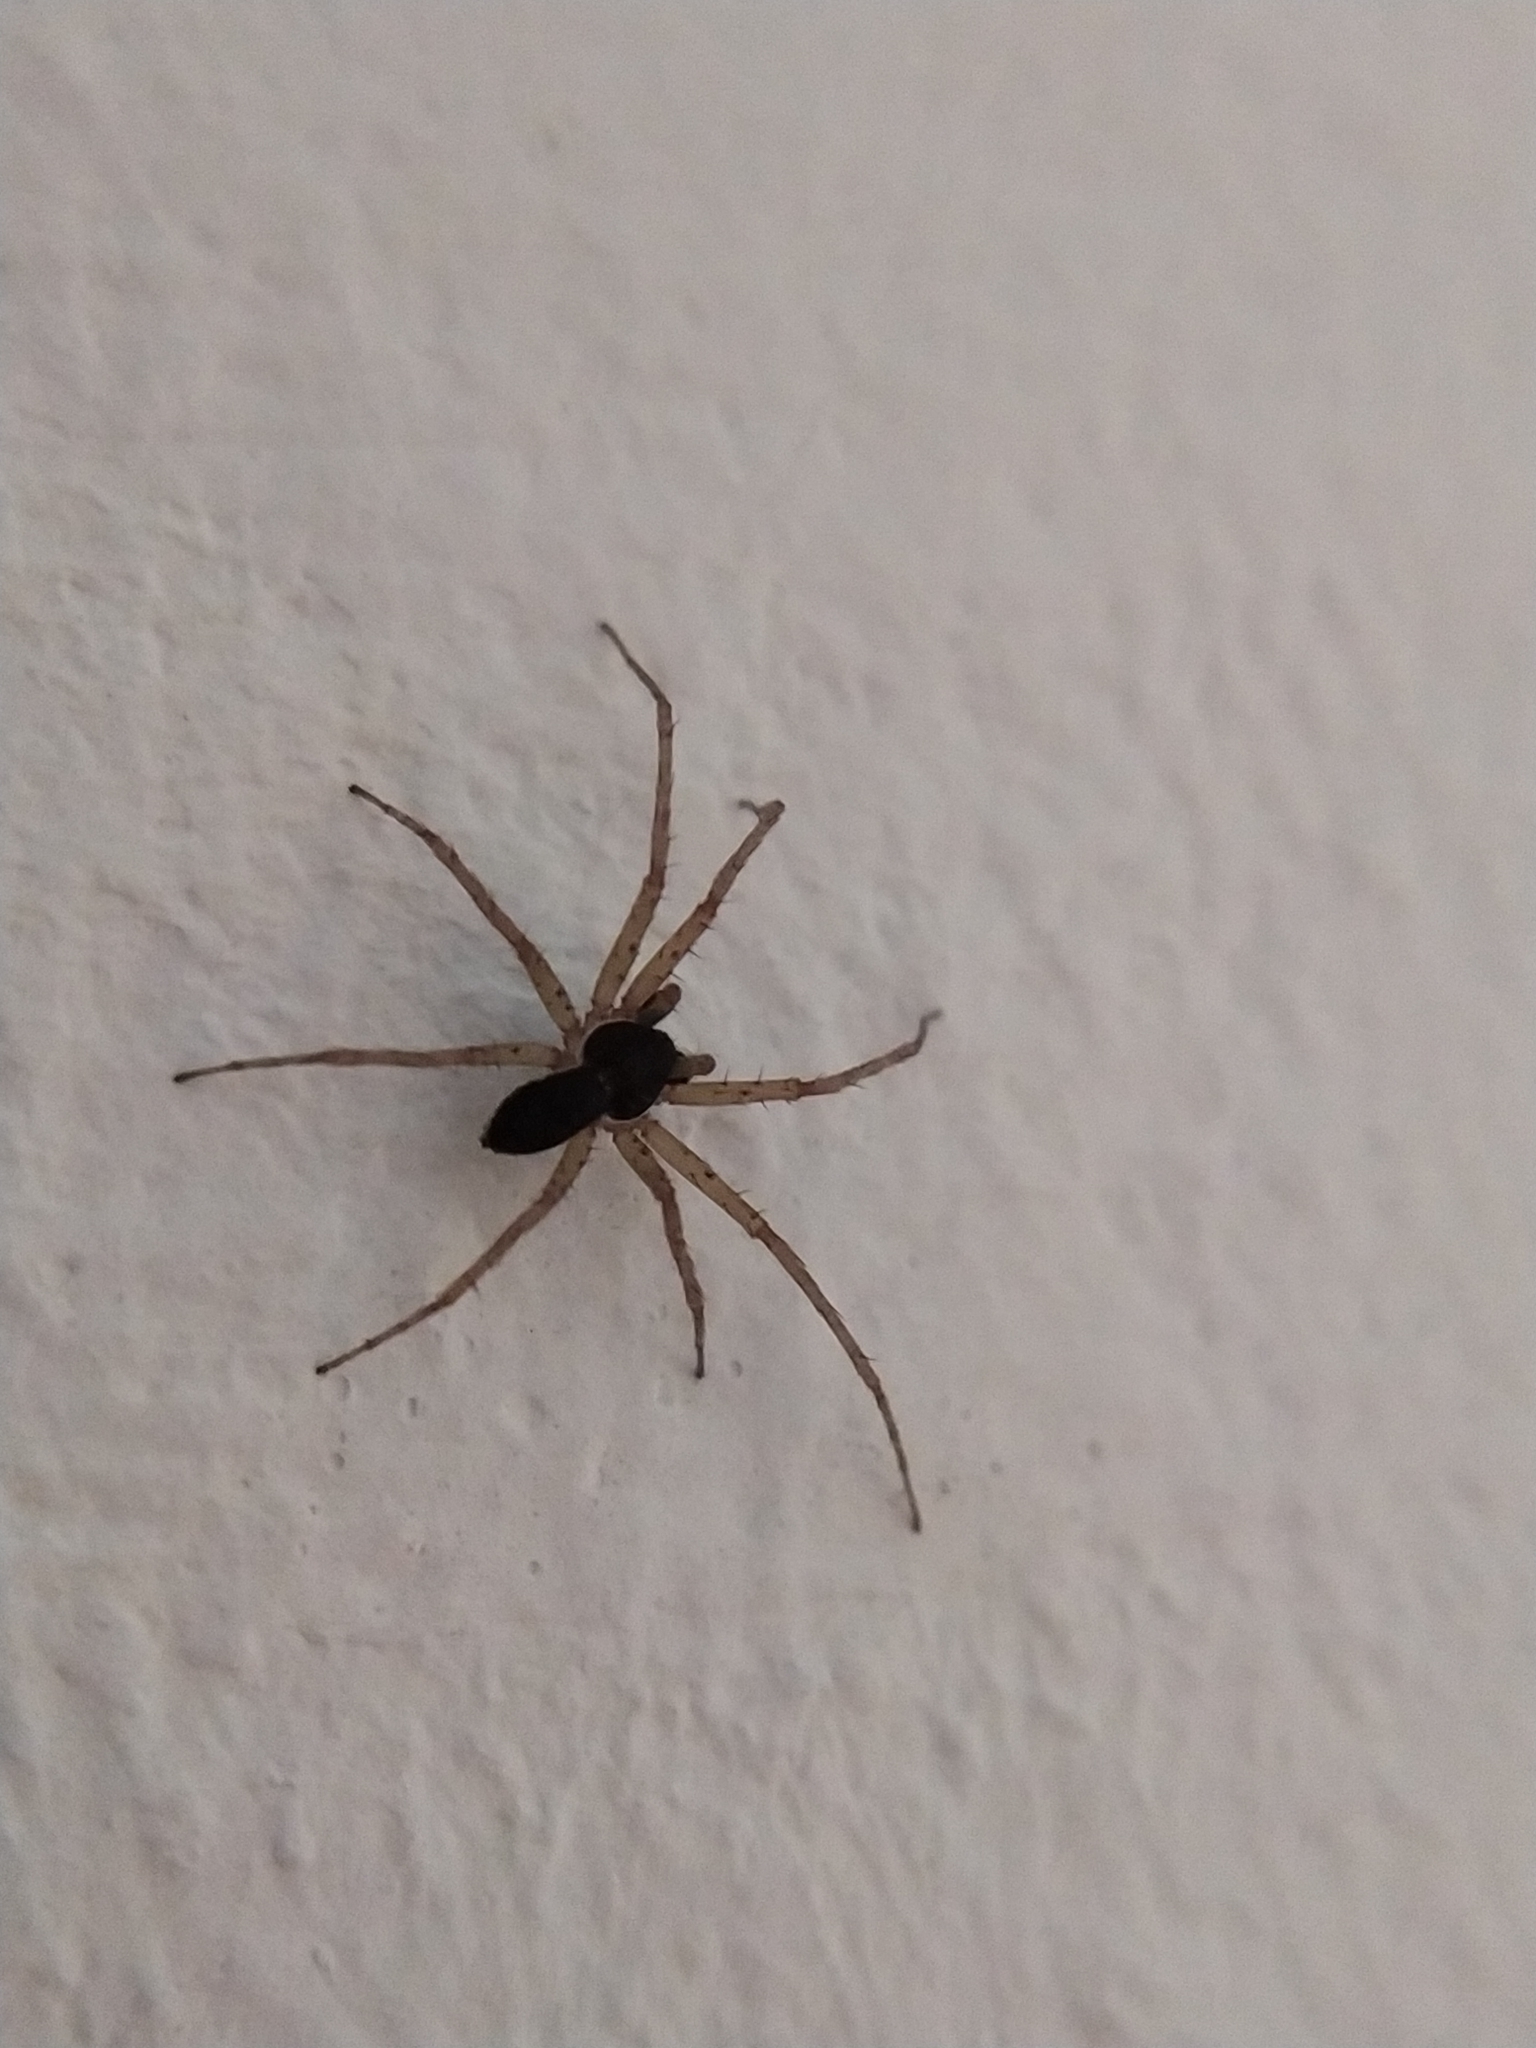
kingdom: Animalia
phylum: Arthropoda
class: Arachnida
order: Araneae
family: Philodromidae
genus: Philodromus
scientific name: Philodromus dispar
